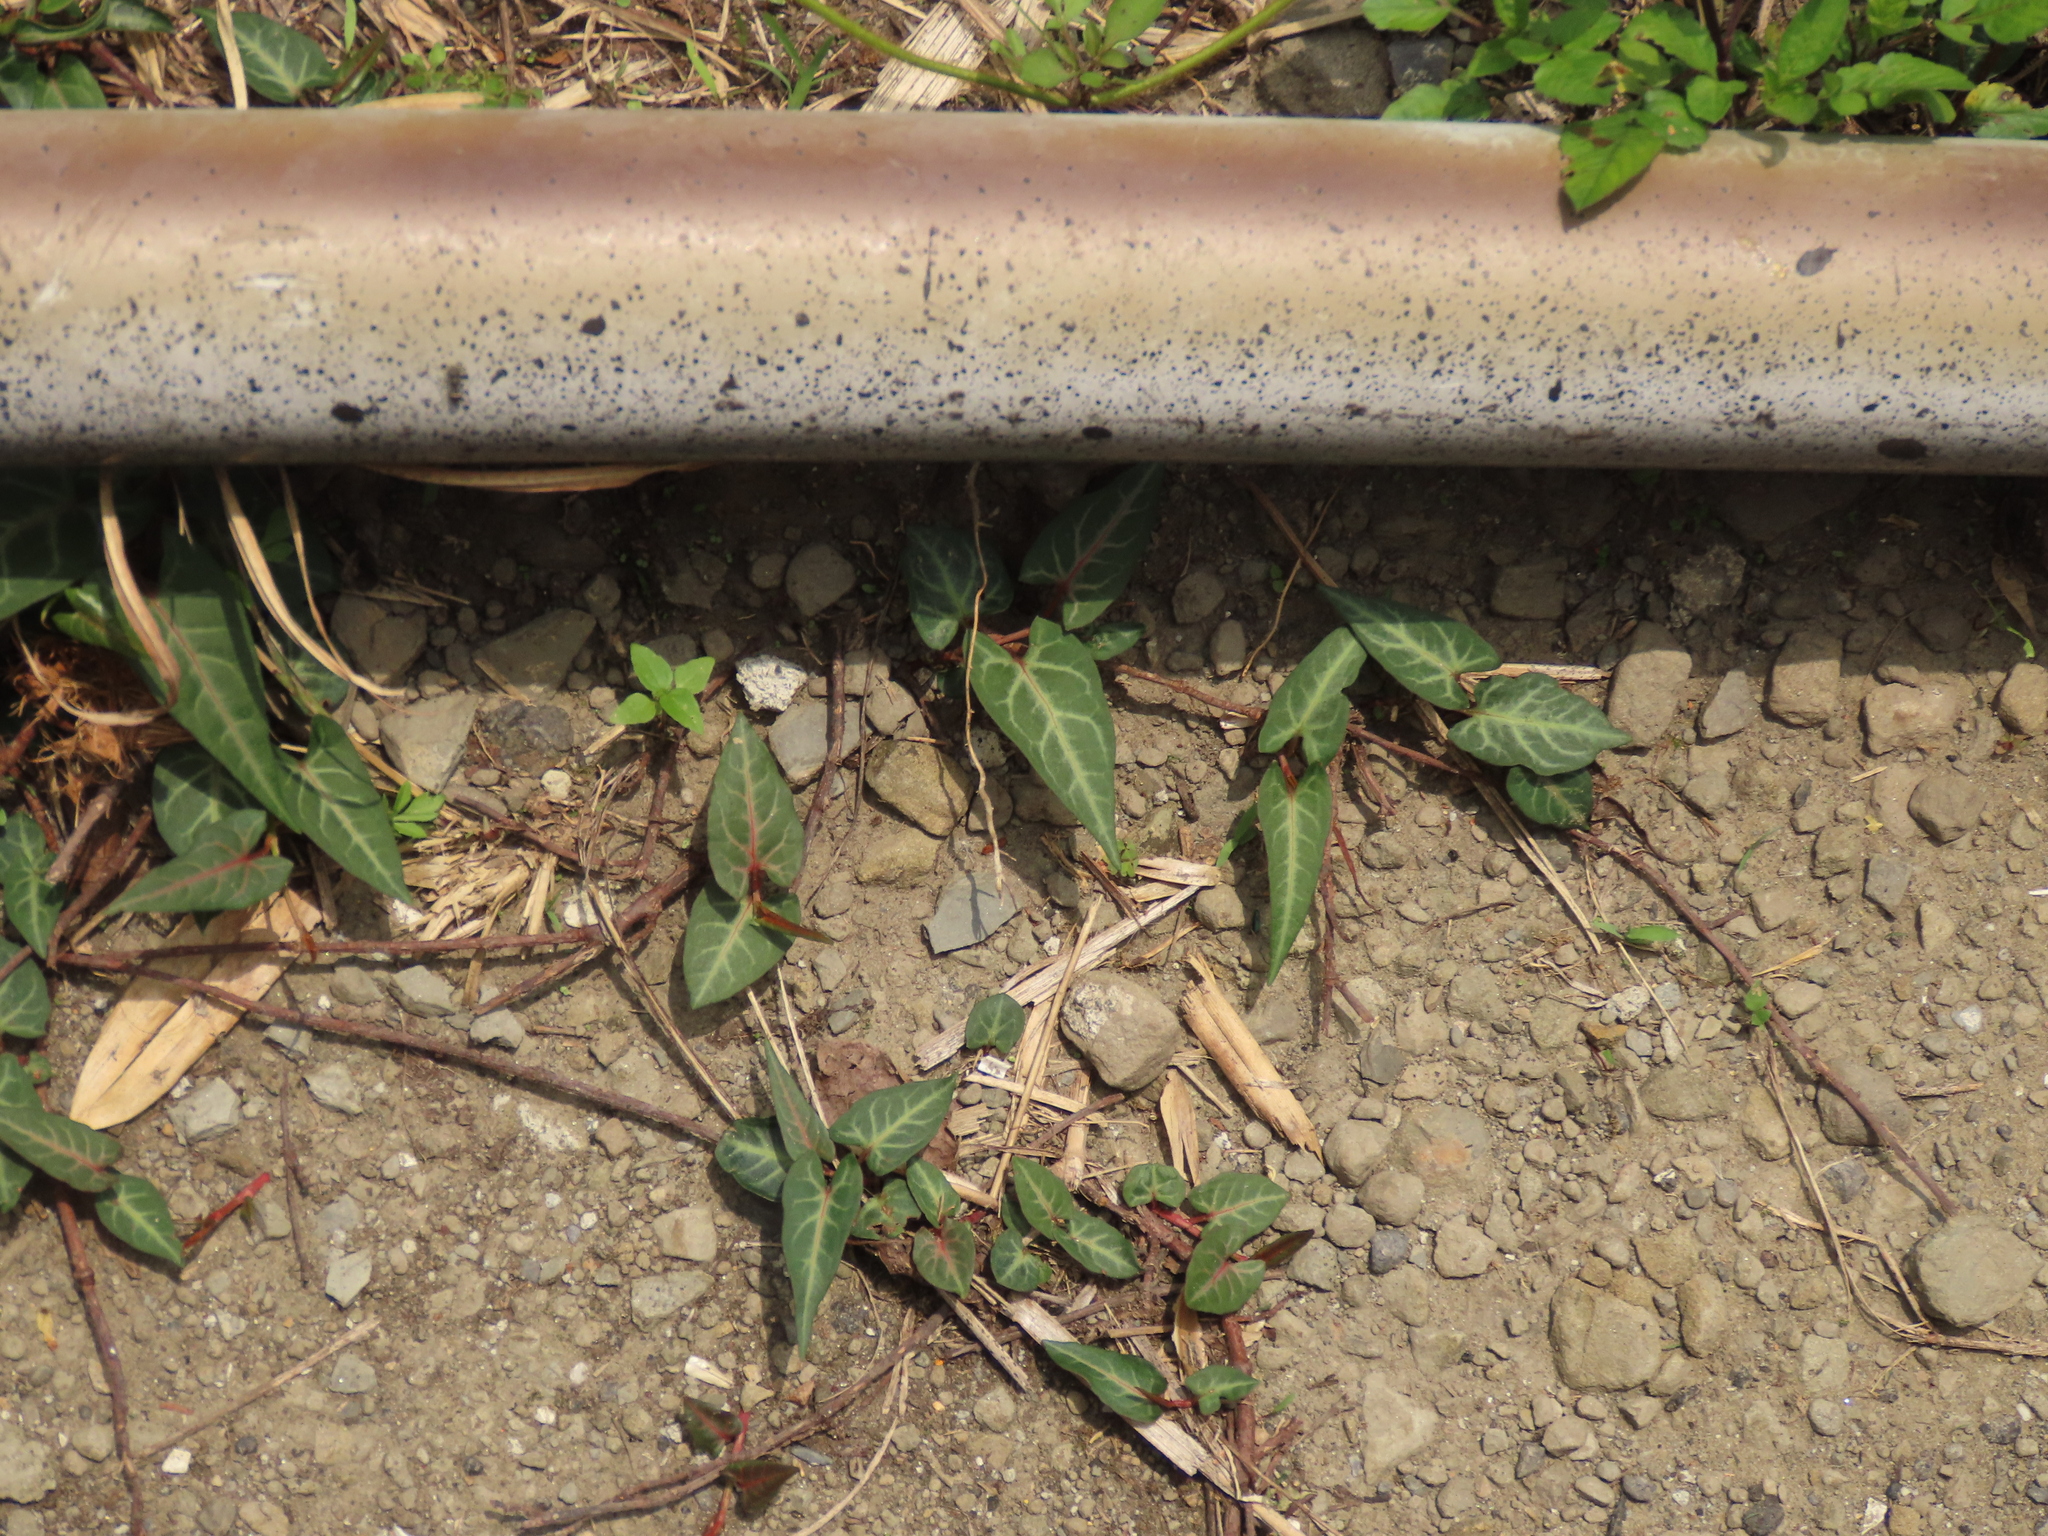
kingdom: Plantae
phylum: Tracheophyta
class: Magnoliopsida
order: Caryophyllales
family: Polygonaceae
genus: Reynoutria
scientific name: Reynoutria multiflora
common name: Chinese fleeceflower
